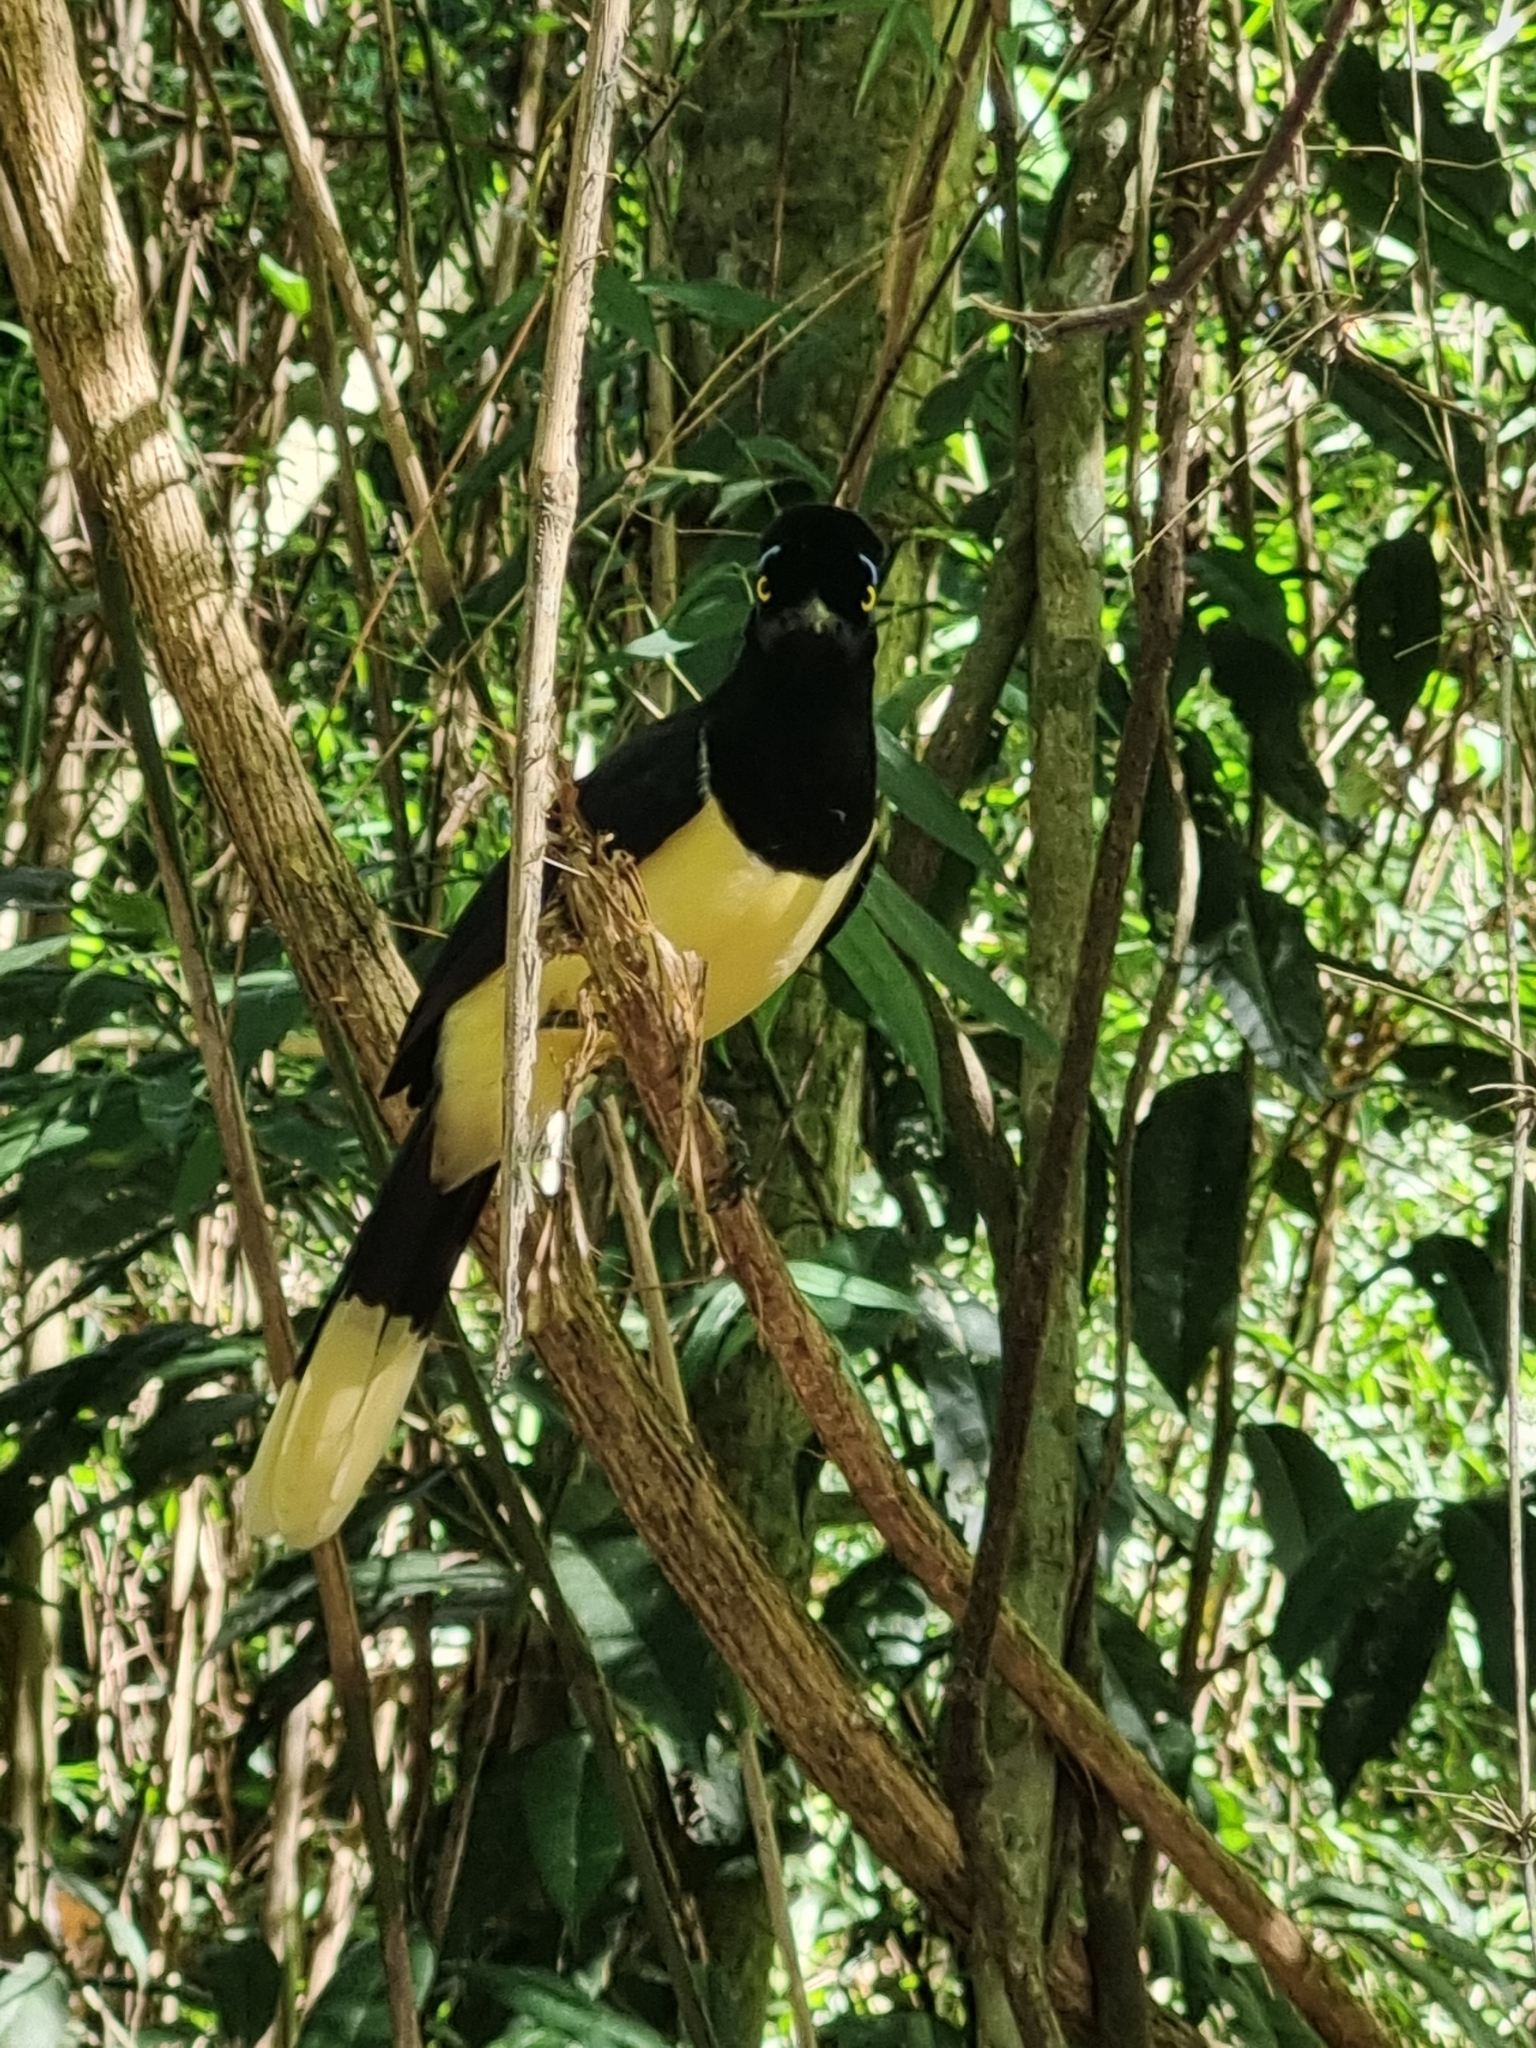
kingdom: Animalia
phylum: Chordata
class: Aves
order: Passeriformes
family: Corvidae
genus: Cyanocorax
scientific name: Cyanocorax chrysops
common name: Plush-crested jay
